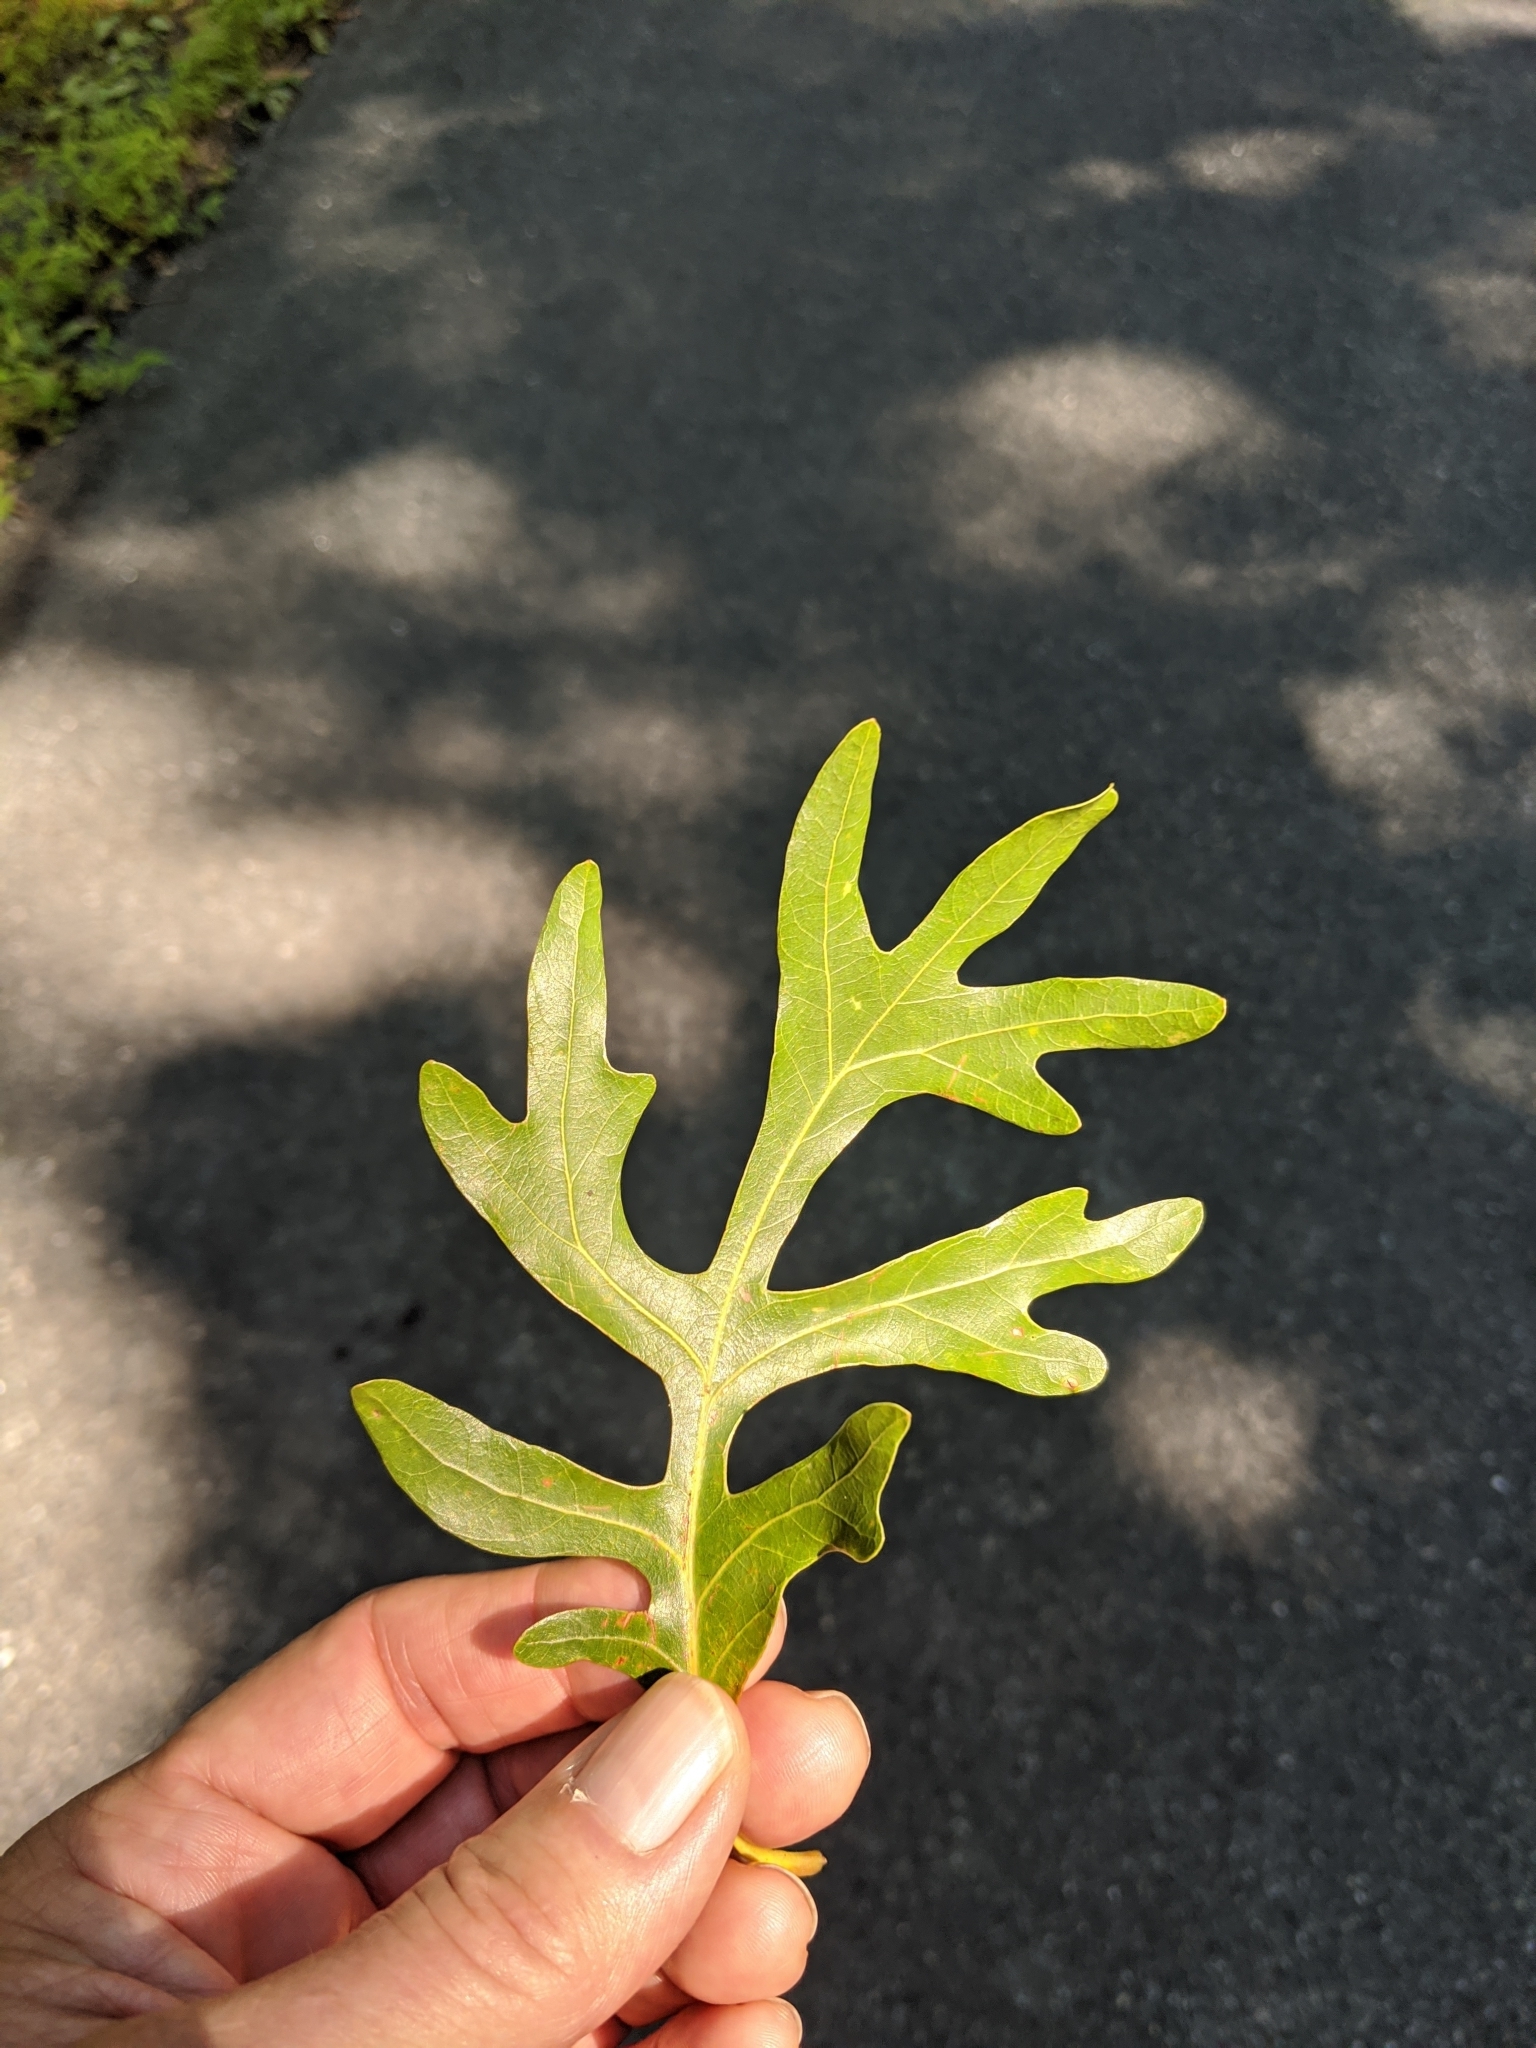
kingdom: Plantae
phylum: Tracheophyta
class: Magnoliopsida
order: Fagales
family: Fagaceae
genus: Quercus
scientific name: Quercus alba
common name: White oak
